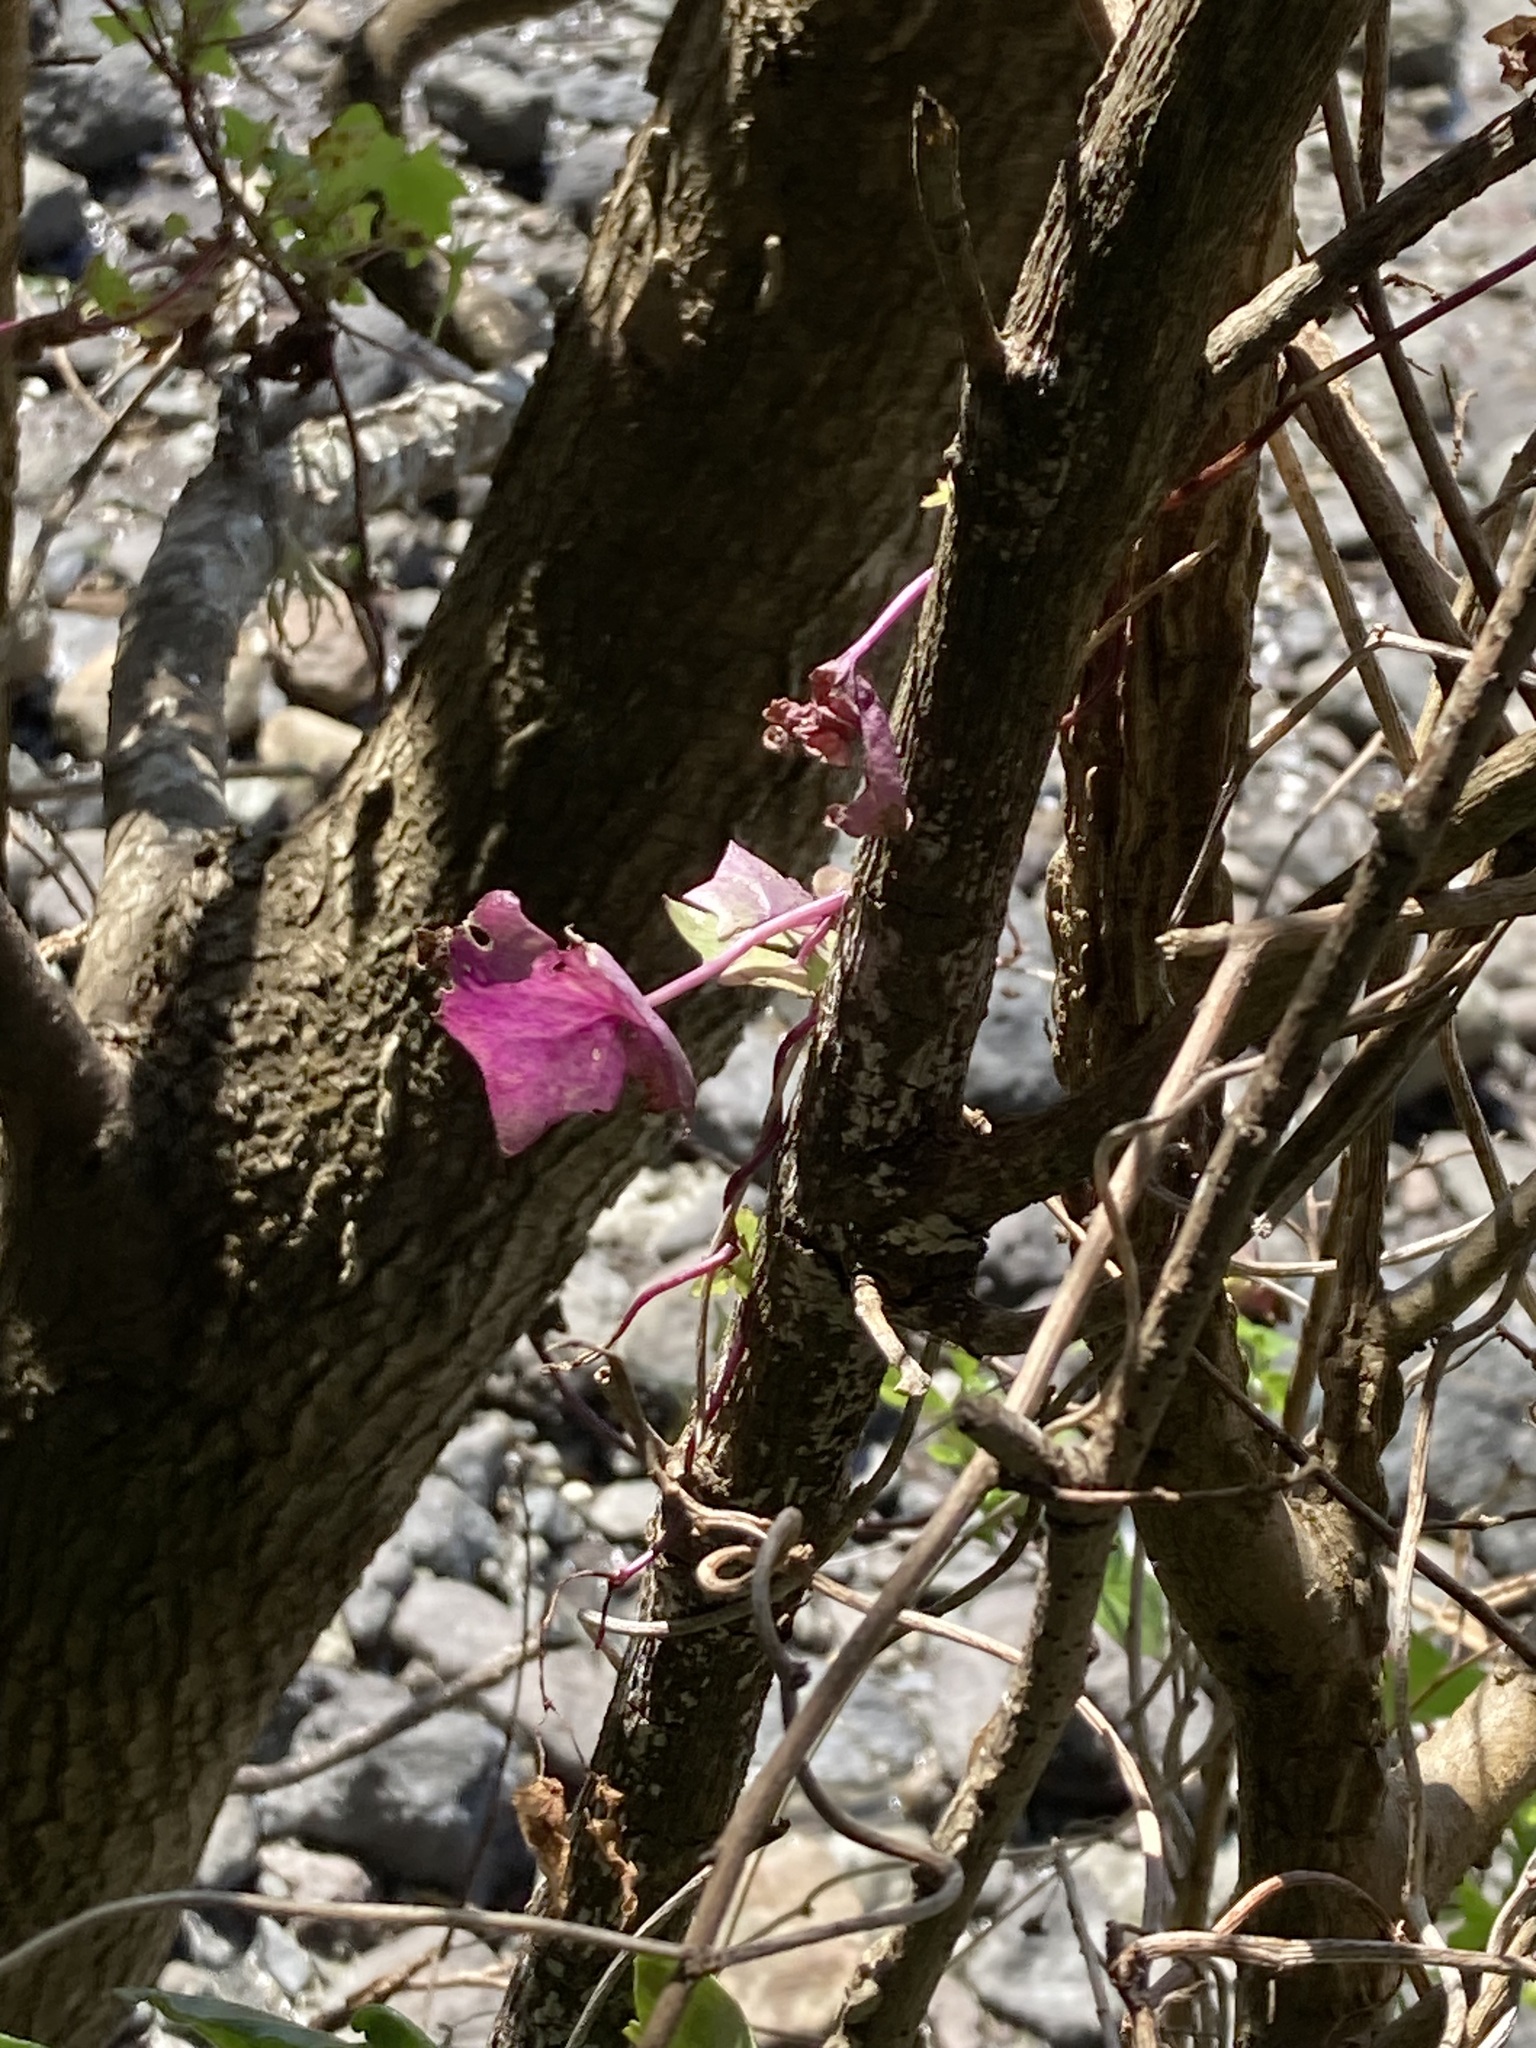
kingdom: Plantae
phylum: Tracheophyta
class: Magnoliopsida
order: Asterales
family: Asteraceae
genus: Delairea
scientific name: Delairea odorata
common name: Cape-ivy
